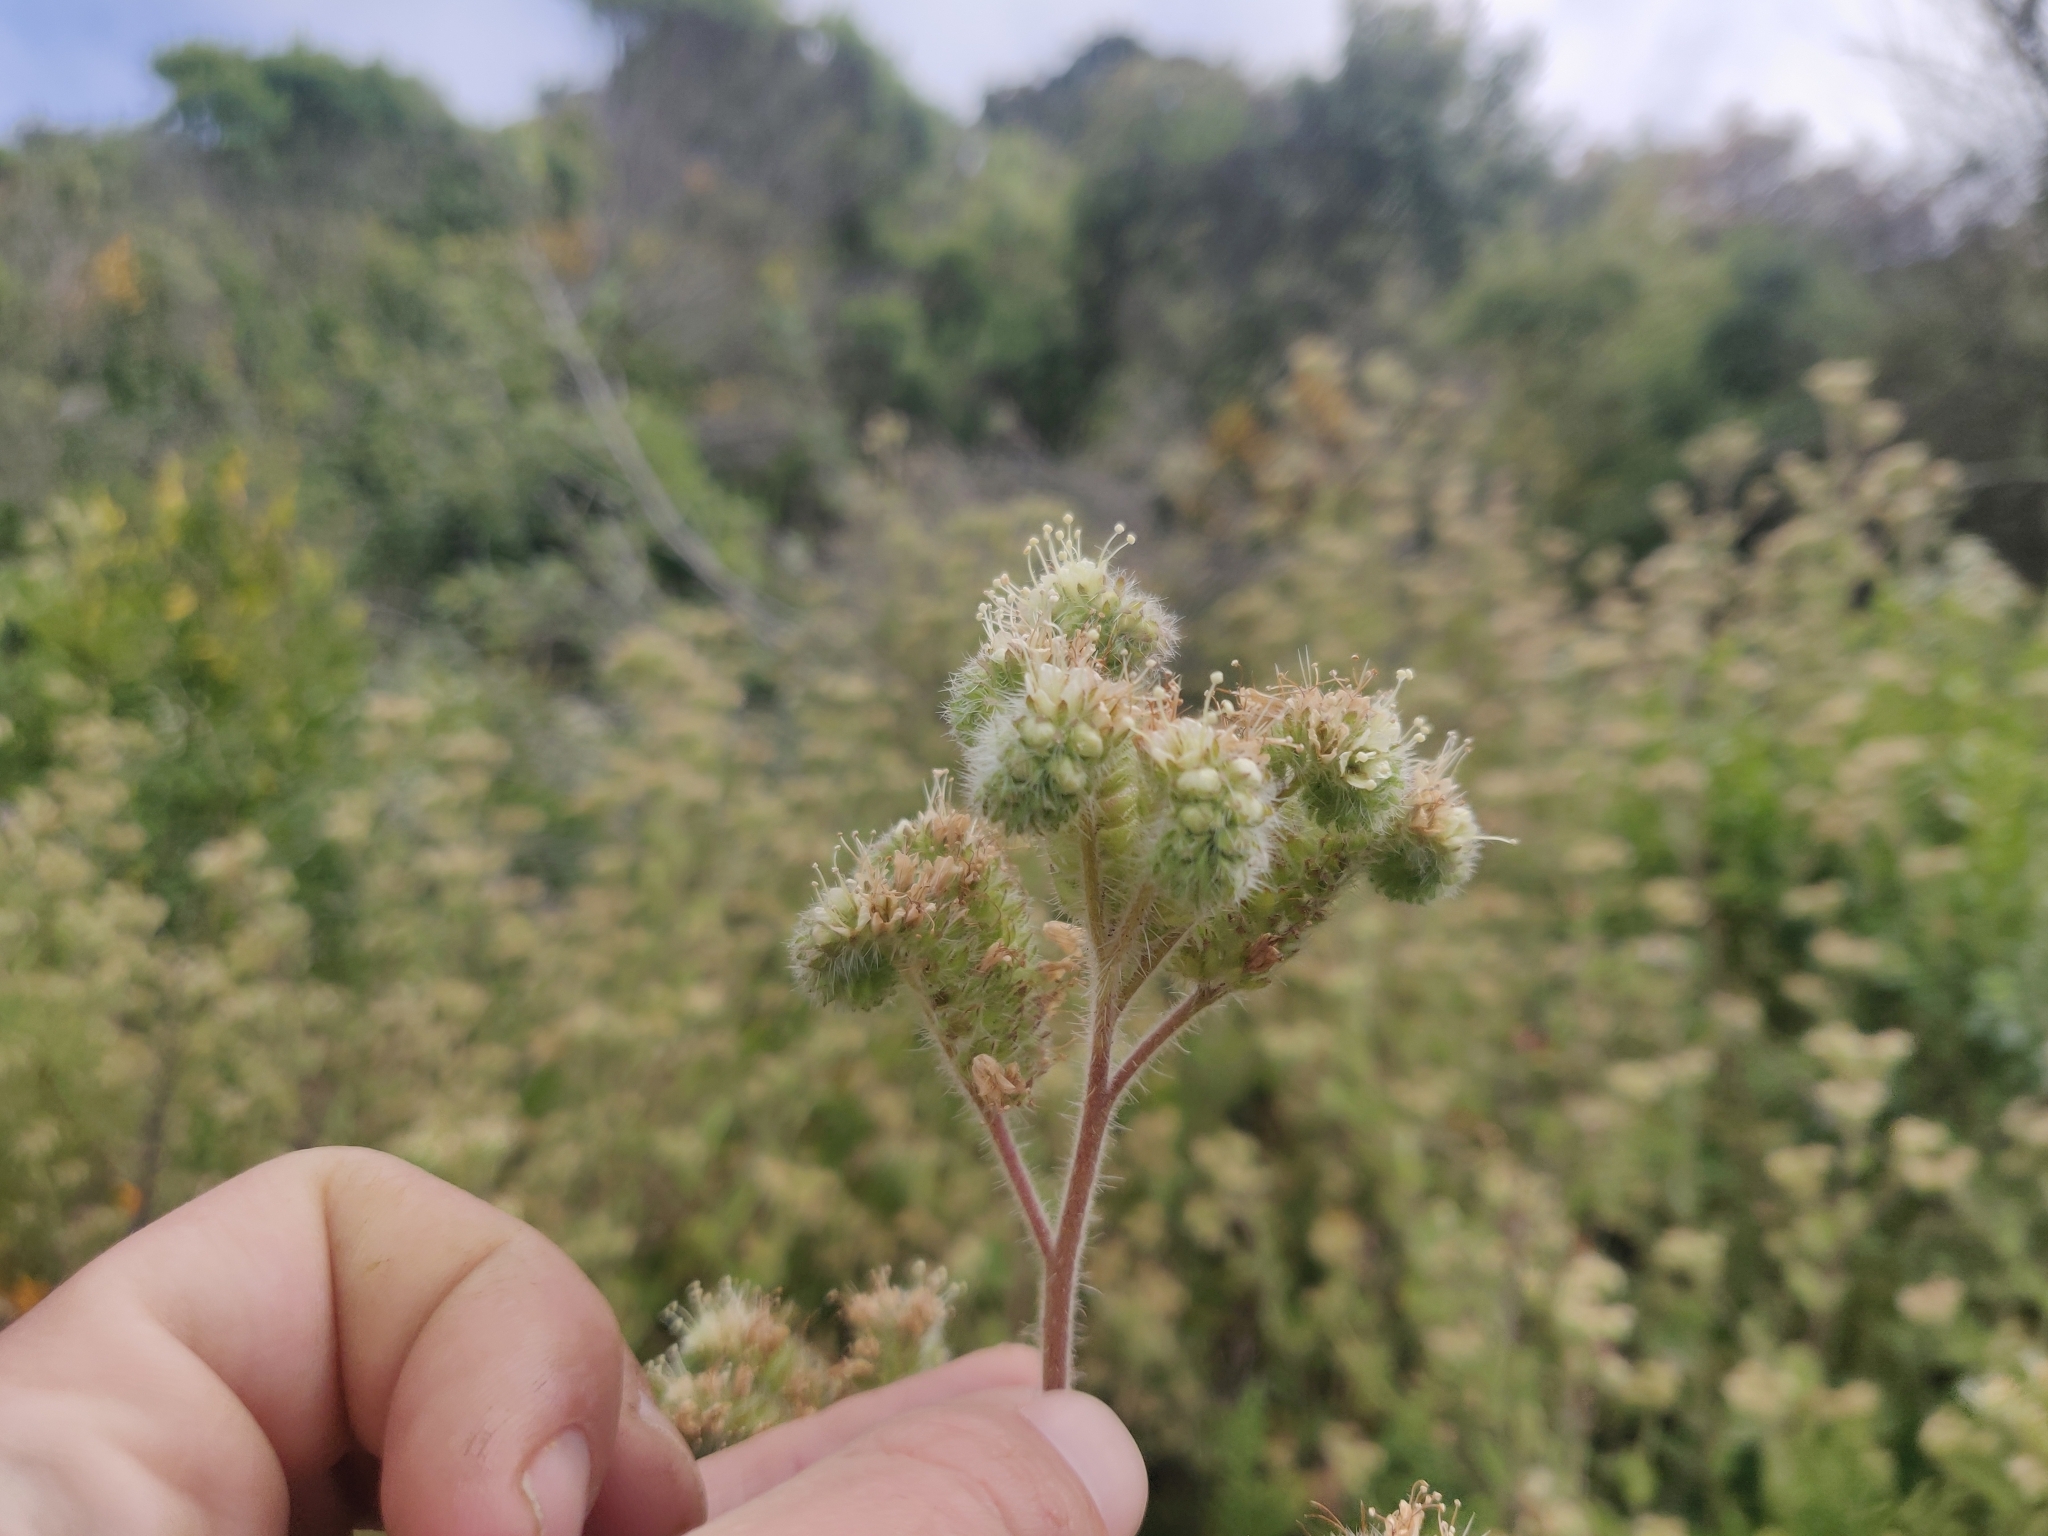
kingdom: Plantae
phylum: Tracheophyta
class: Magnoliopsida
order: Boraginales
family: Hydrophyllaceae
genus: Phacelia
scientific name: Phacelia nemoralis
